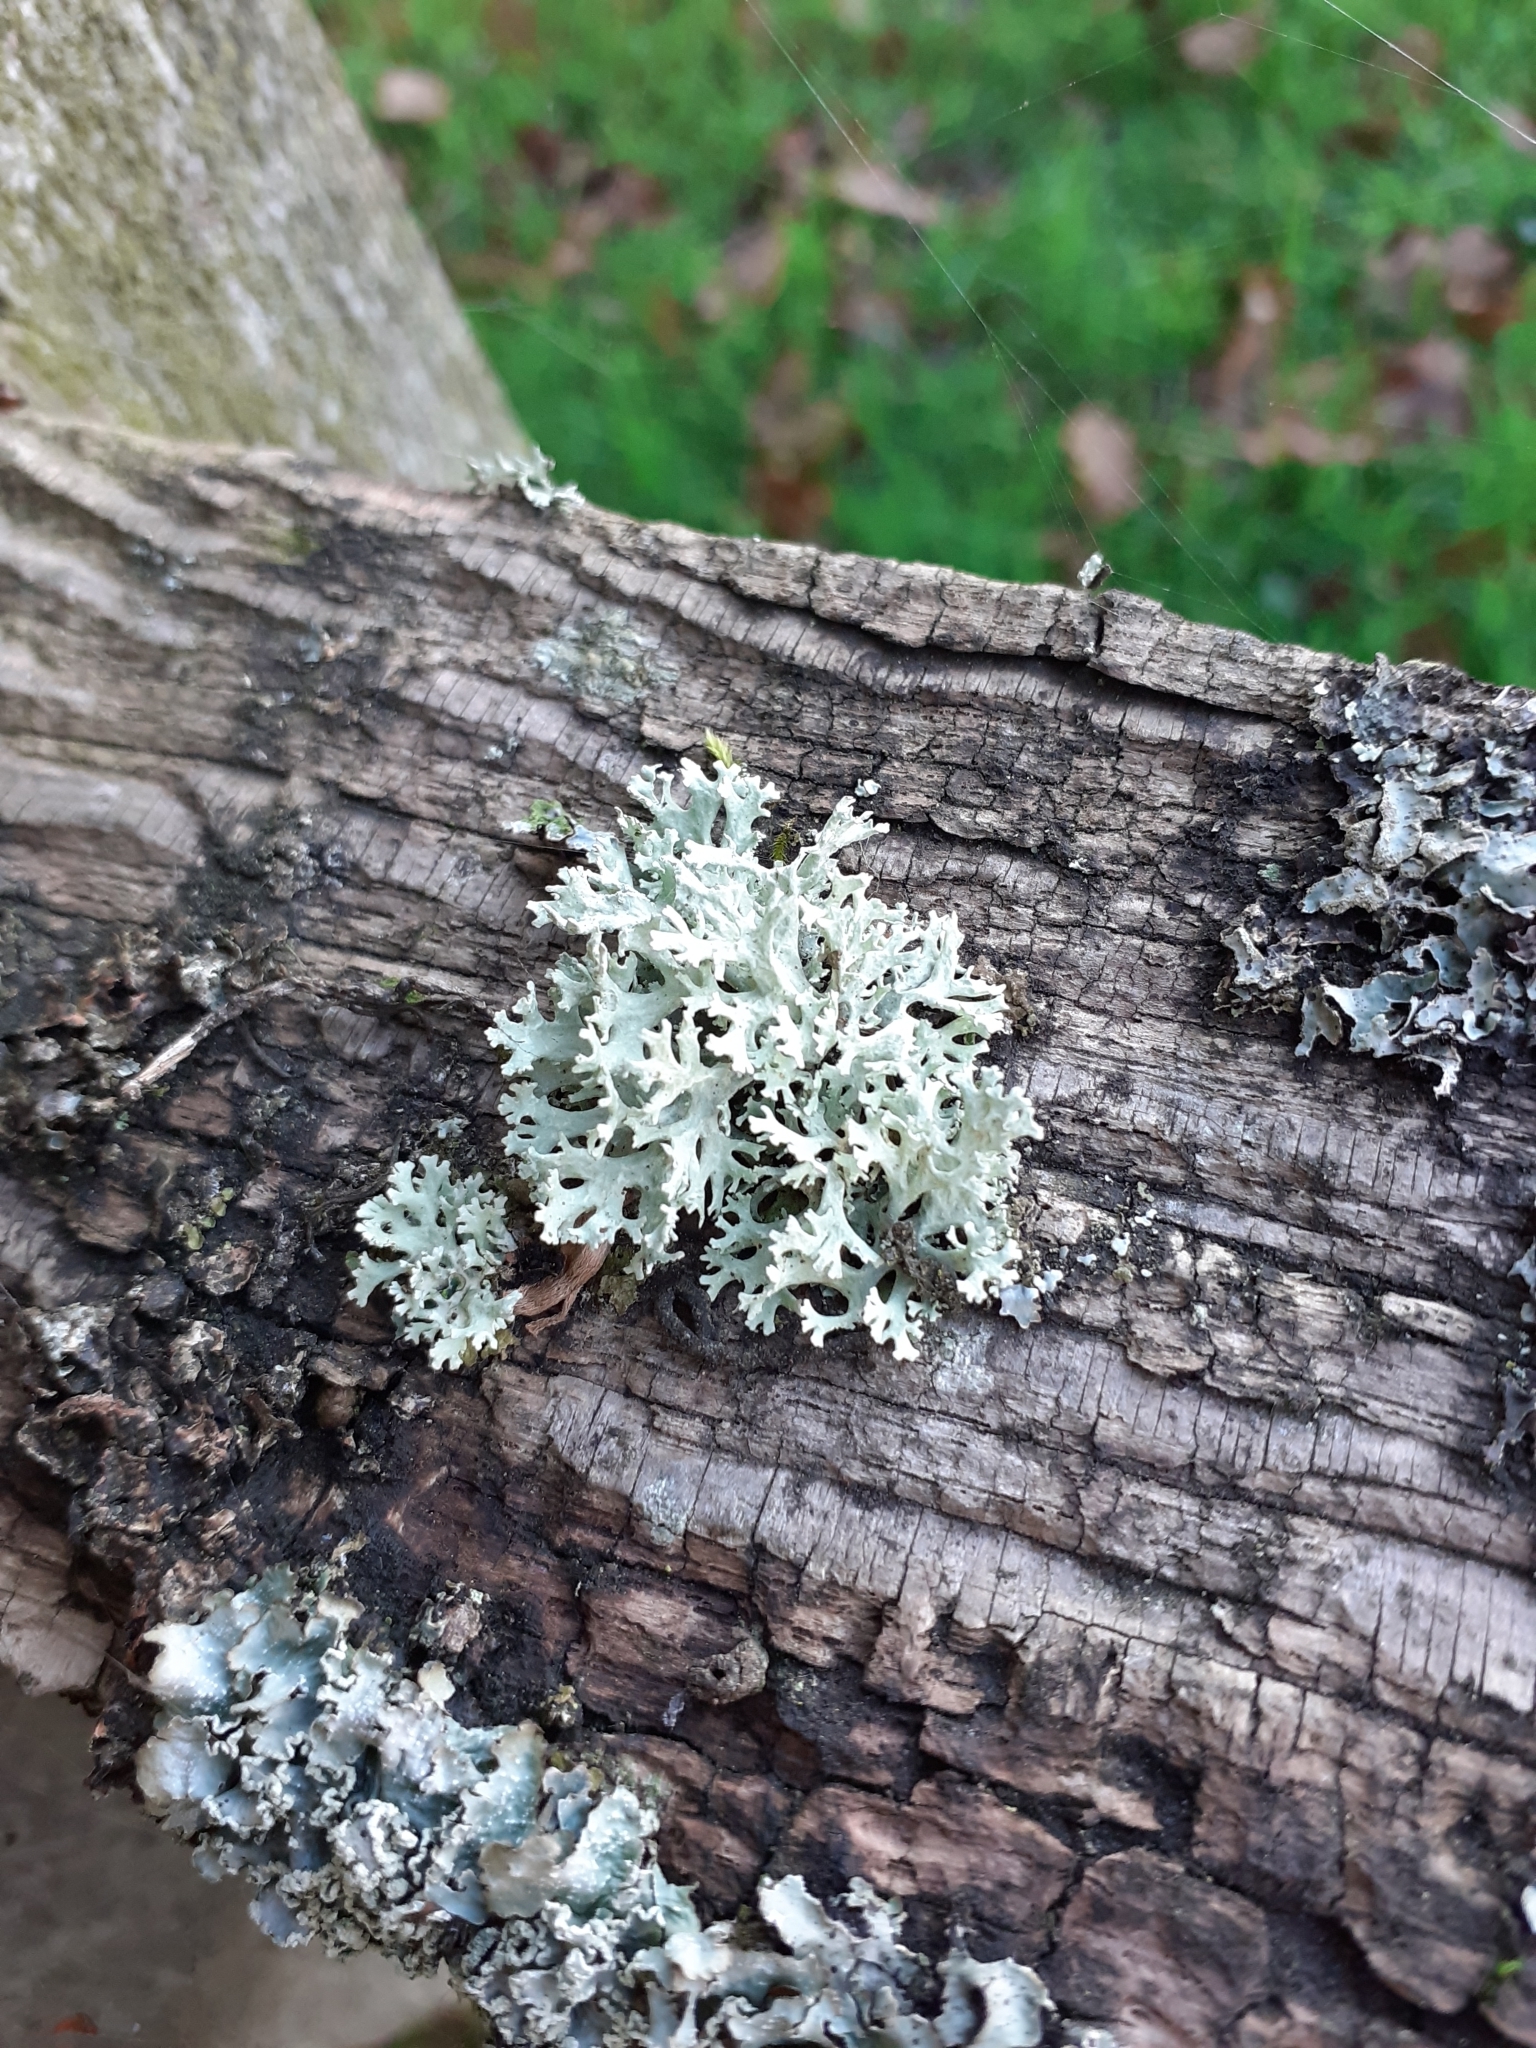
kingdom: Fungi
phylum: Ascomycota
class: Lecanoromycetes
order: Lecanorales
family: Parmeliaceae
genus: Evernia
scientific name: Evernia prunastri
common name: Oak moss
